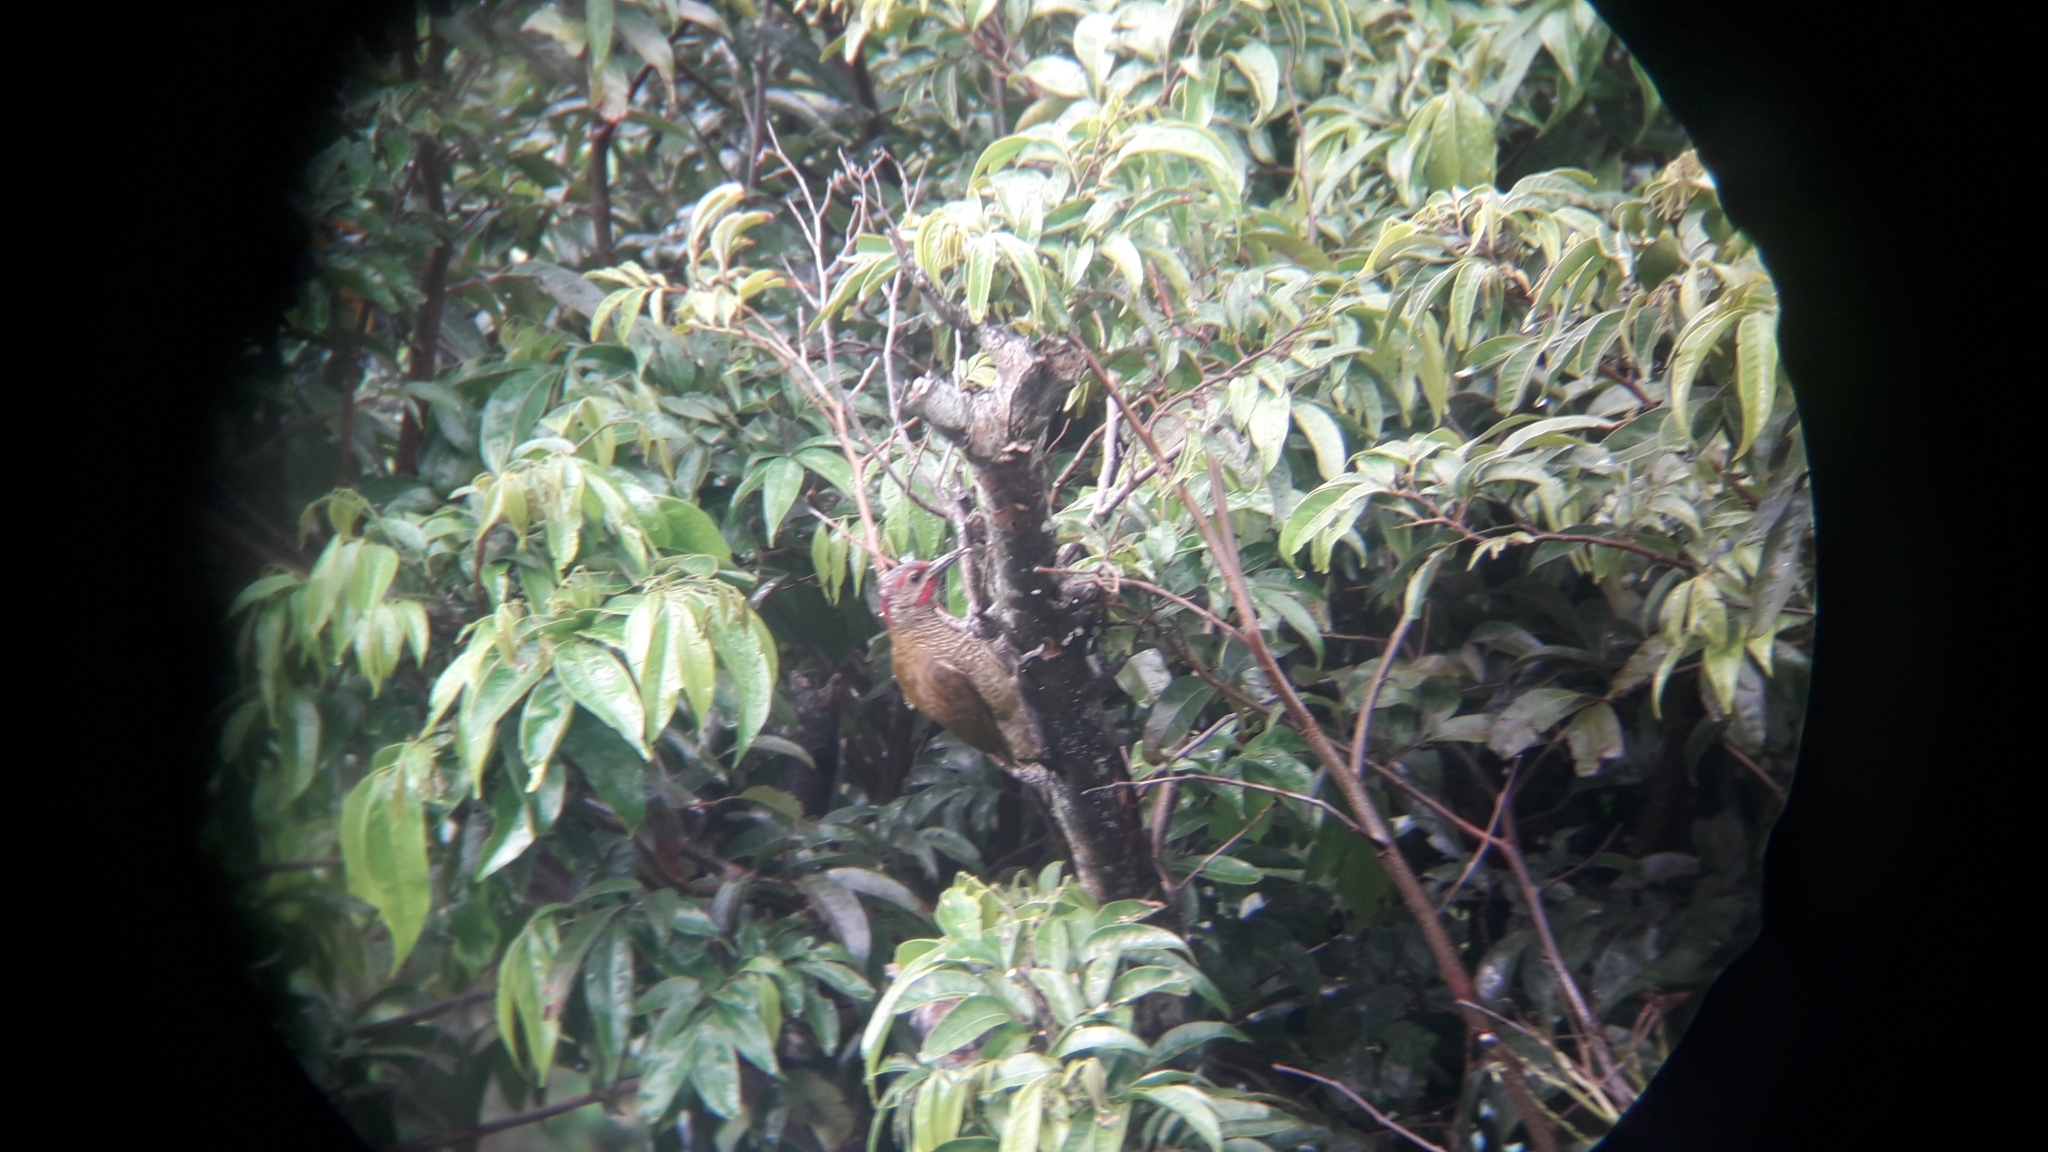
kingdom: Animalia
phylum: Chordata
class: Aves
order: Piciformes
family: Picidae
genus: Colaptes
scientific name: Colaptes rubiginosus
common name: Golden-olive woodpecker
